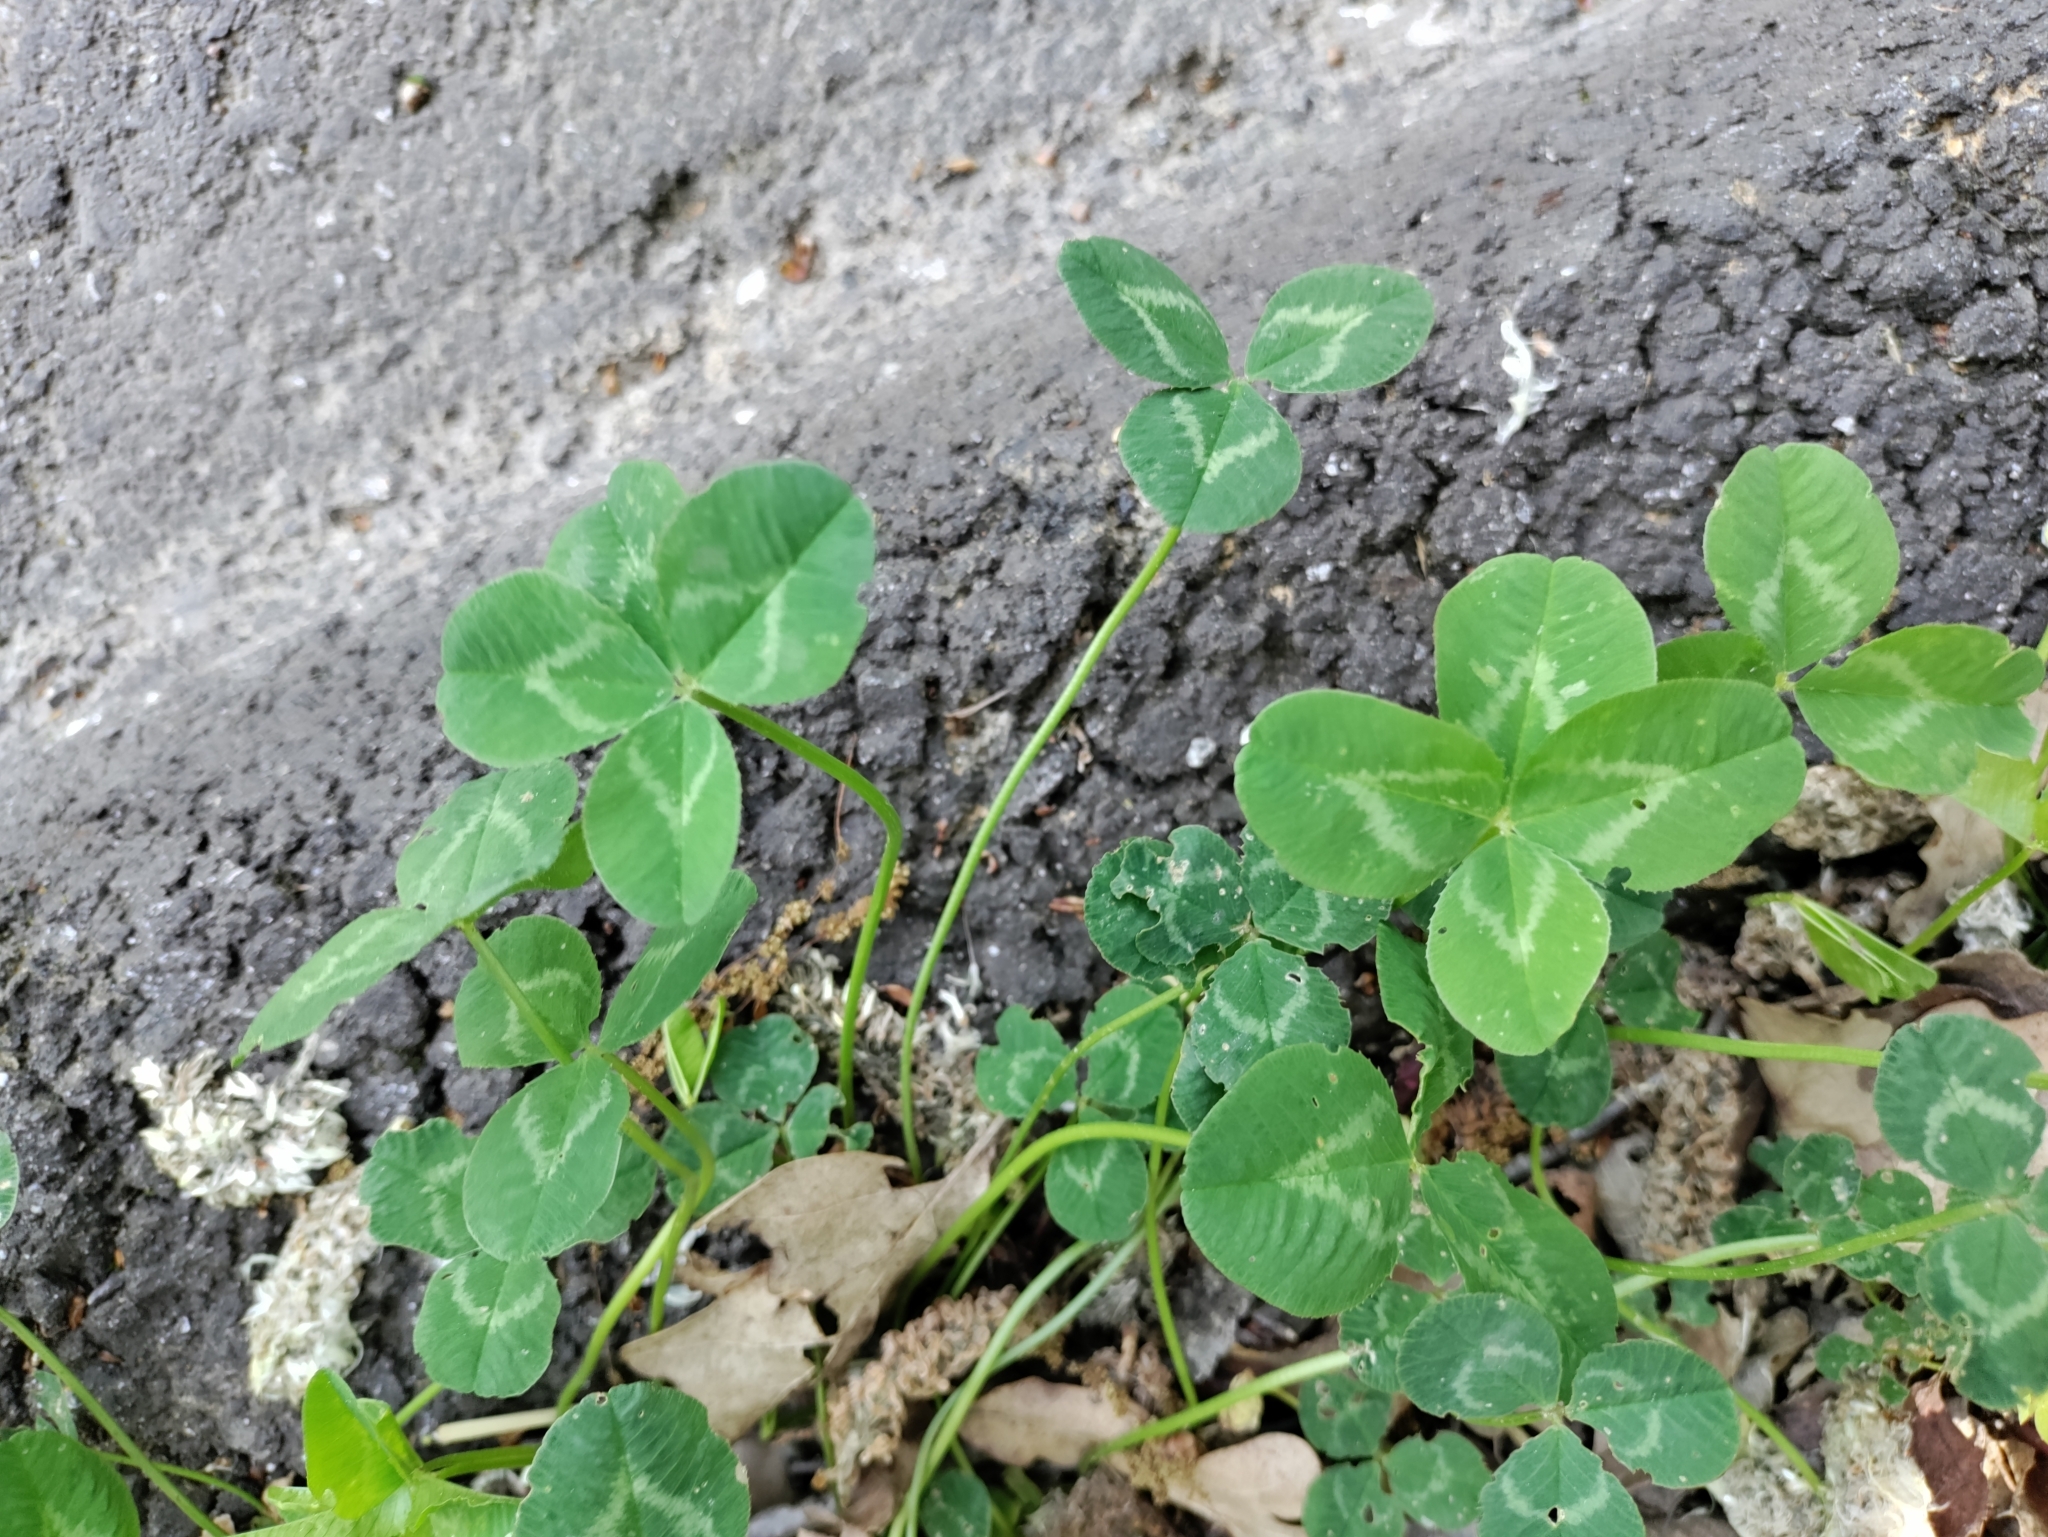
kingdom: Plantae
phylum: Tracheophyta
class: Magnoliopsida
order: Fabales
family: Fabaceae
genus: Trifolium
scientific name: Trifolium repens
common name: White clover
